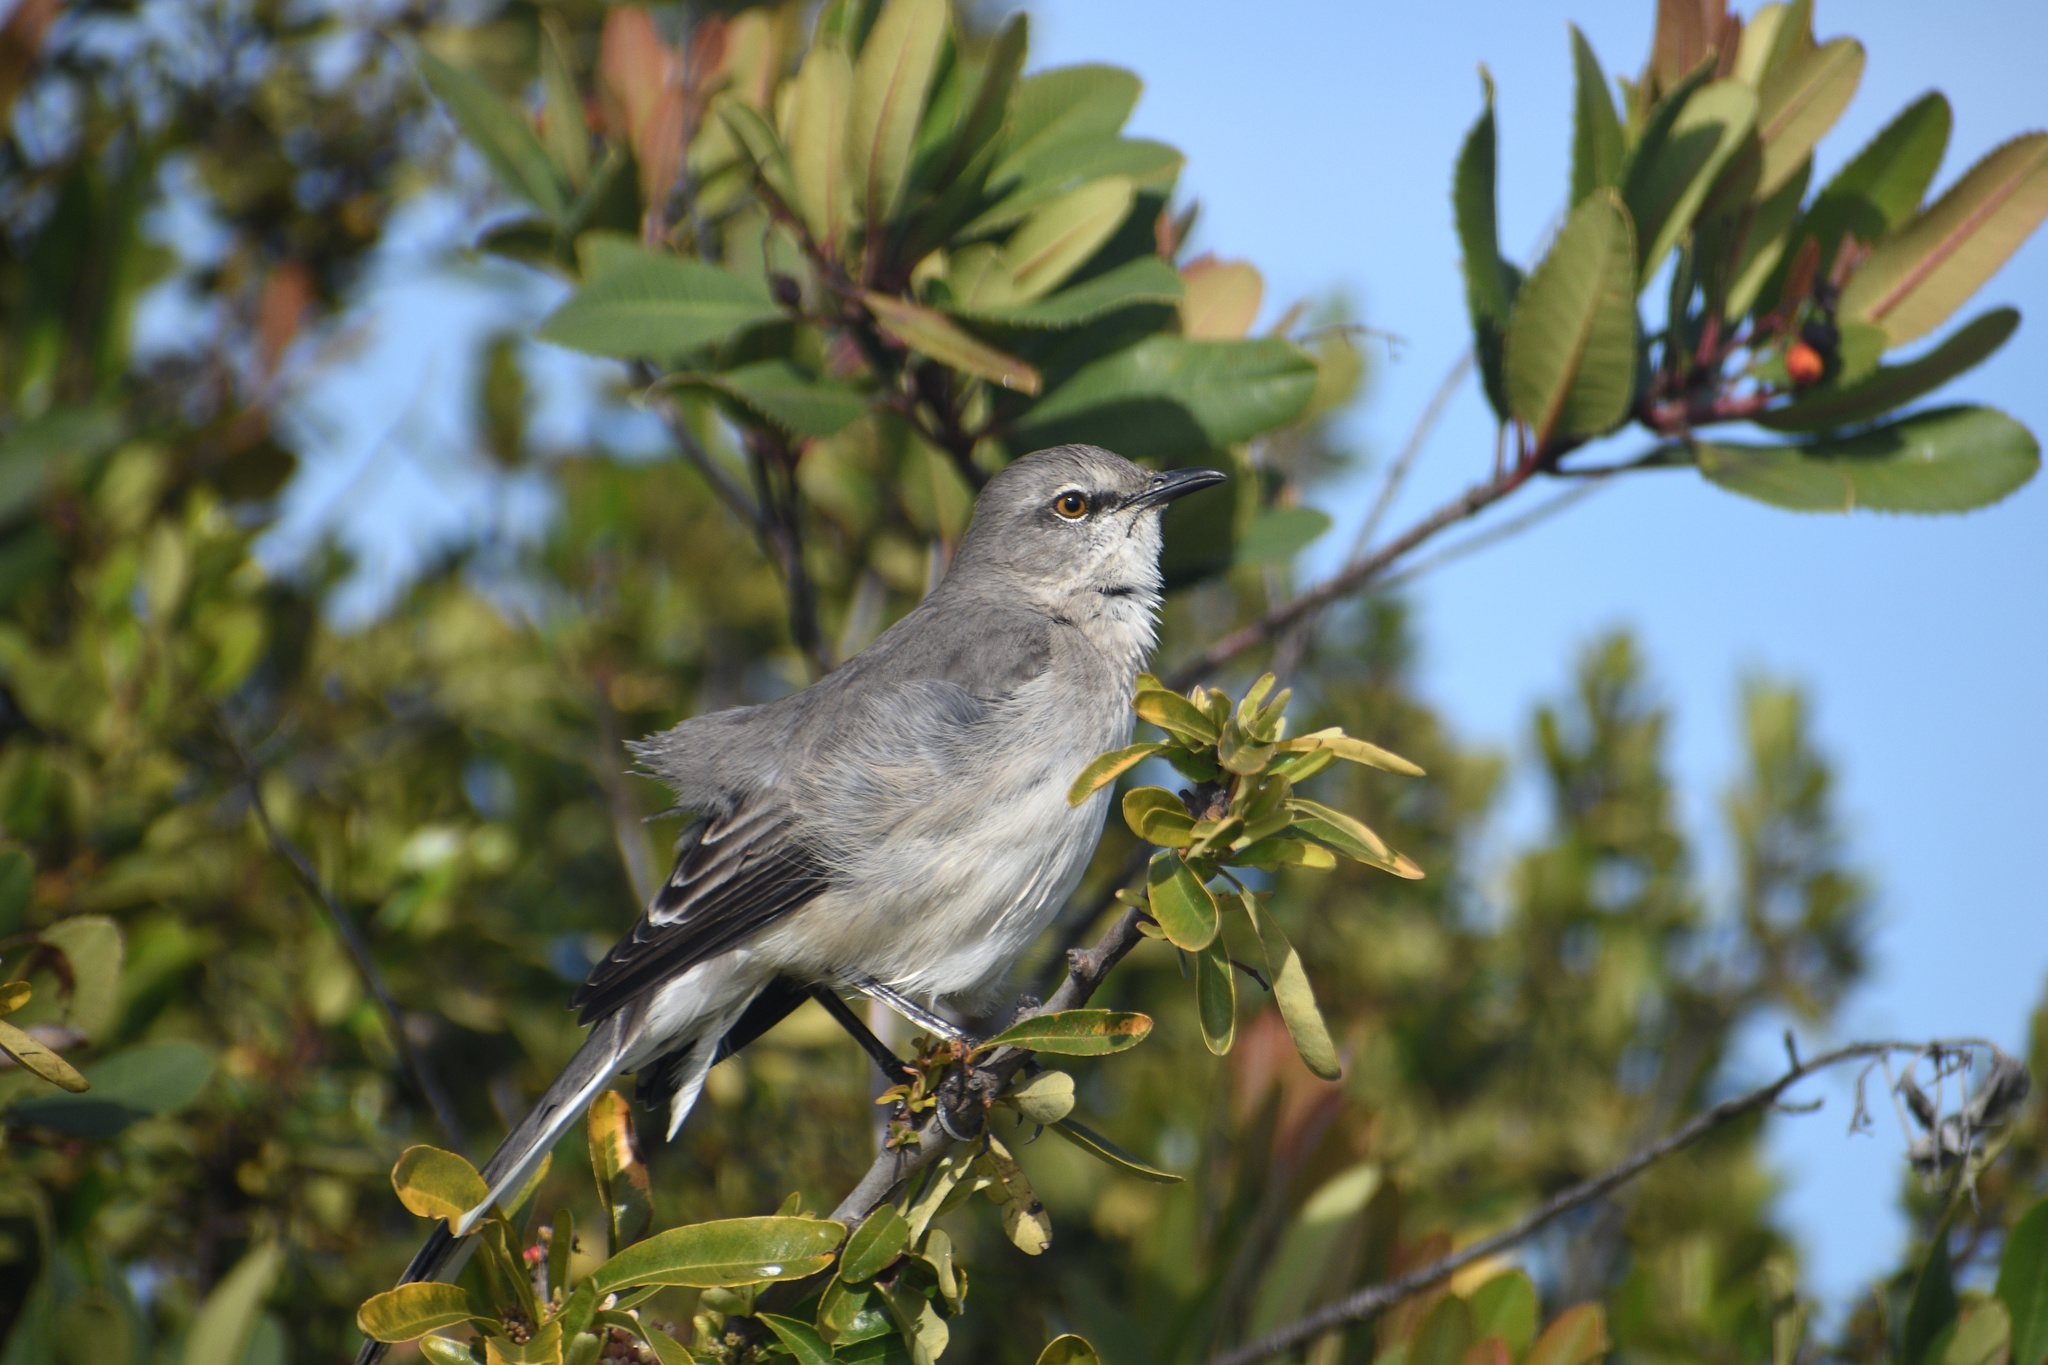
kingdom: Animalia
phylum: Chordata
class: Aves
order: Passeriformes
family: Mimidae
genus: Mimus
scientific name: Mimus polyglottos
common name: Northern mockingbird
